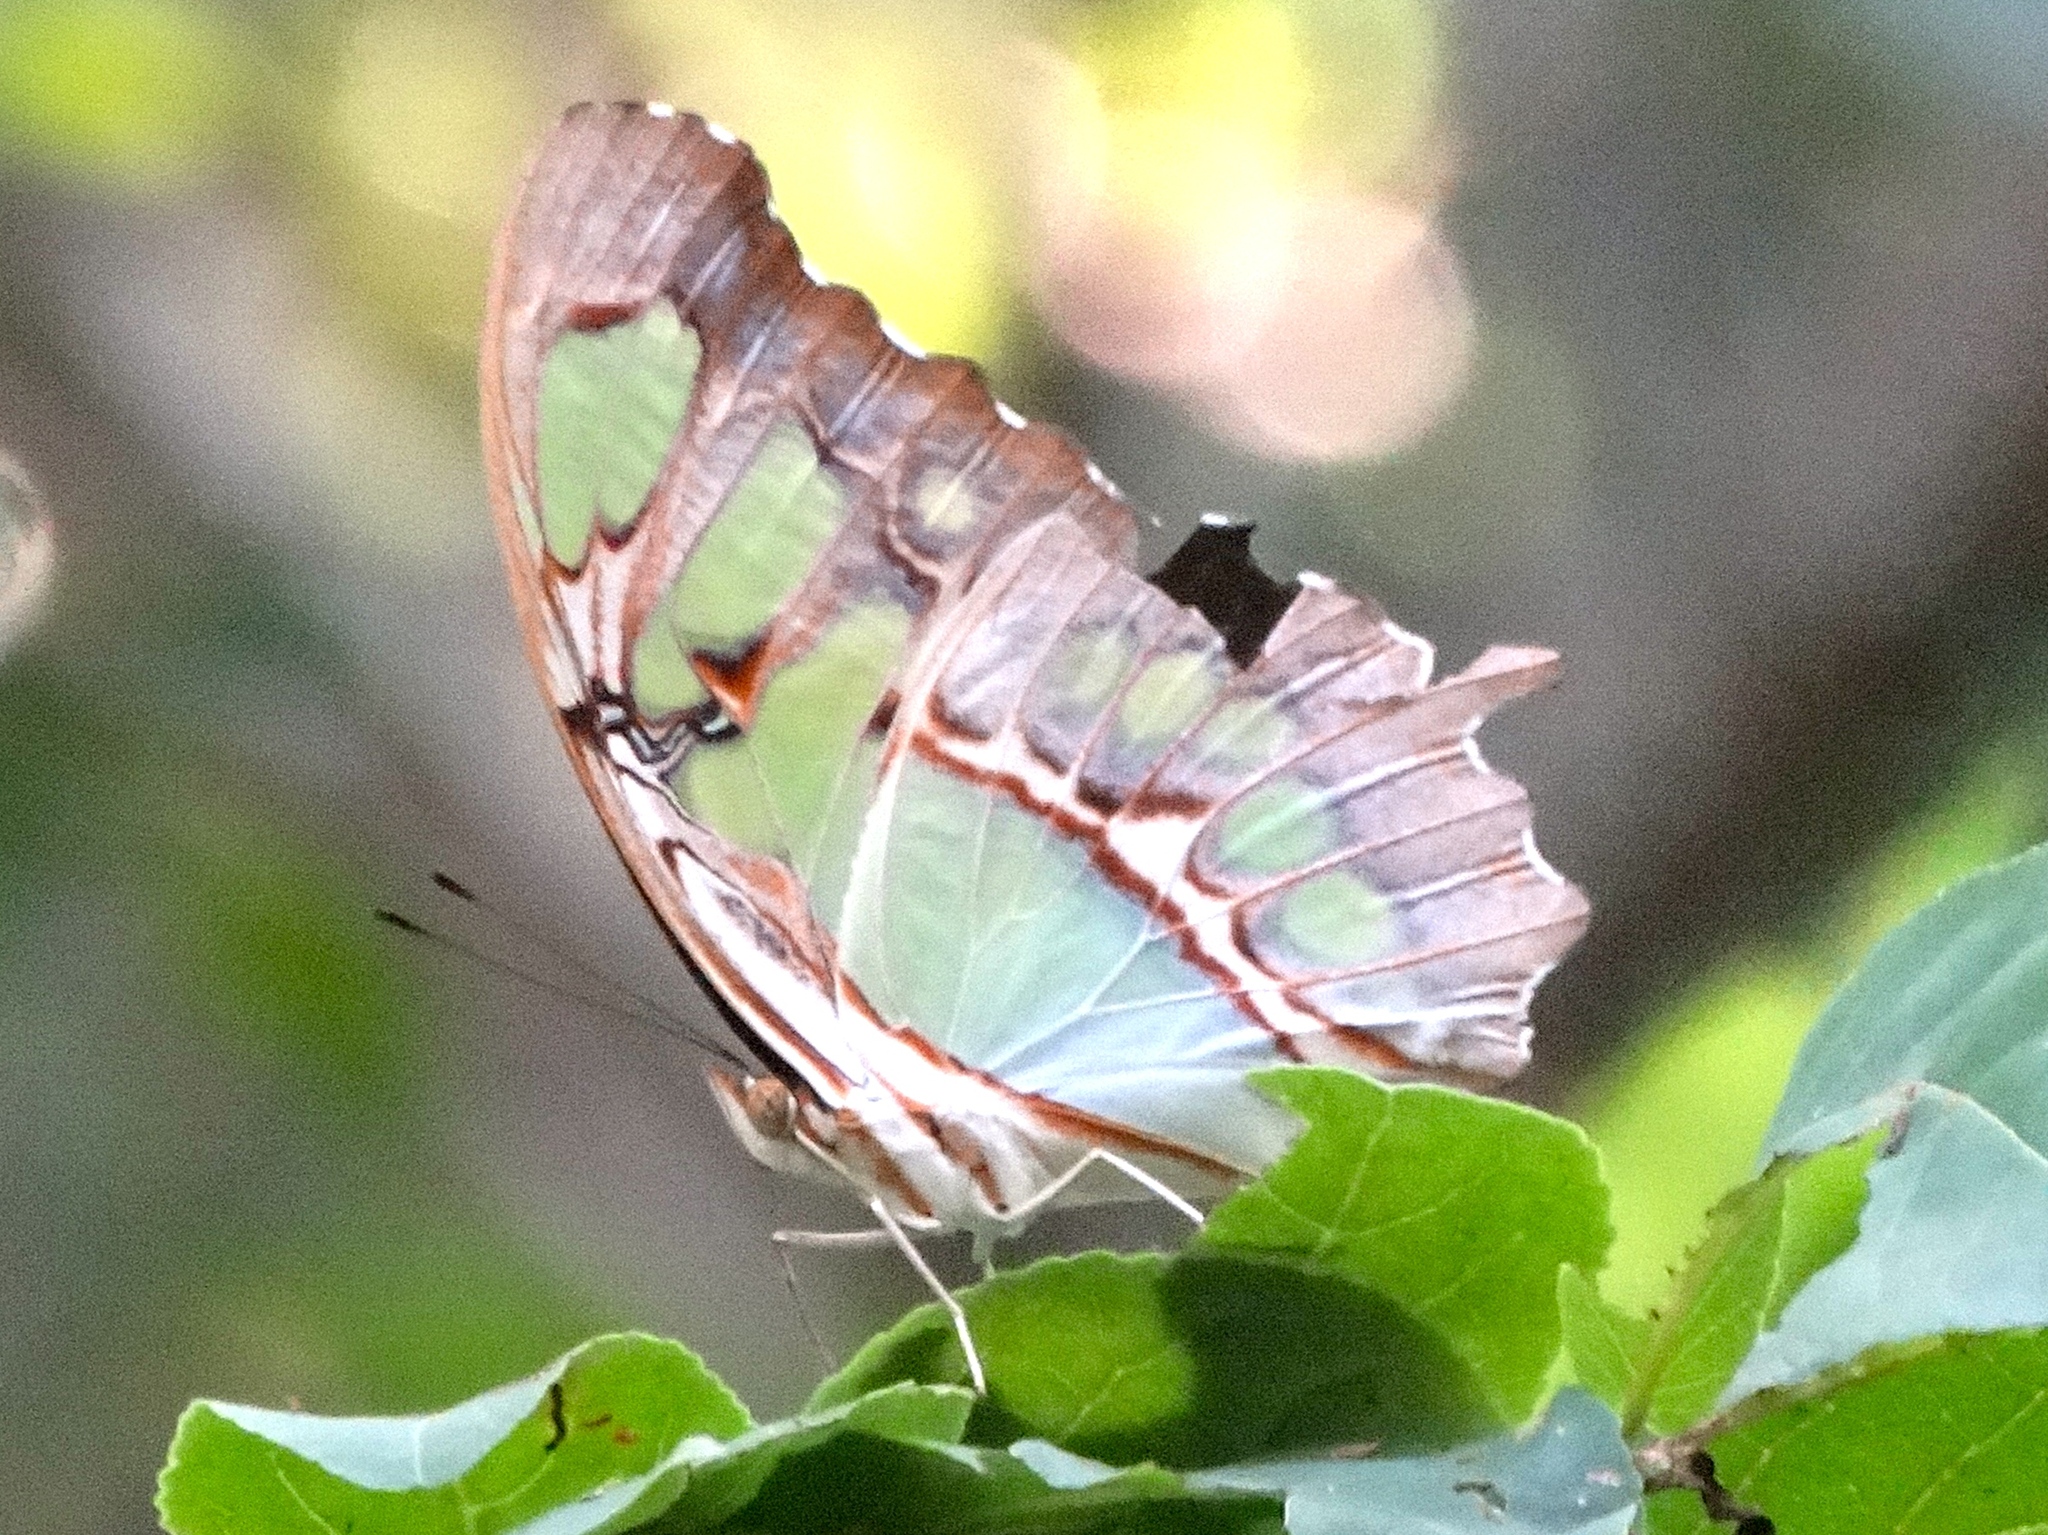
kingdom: Animalia
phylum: Arthropoda
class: Insecta
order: Lepidoptera
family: Nymphalidae
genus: Siproeta
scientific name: Siproeta stelenes
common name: Malachite
